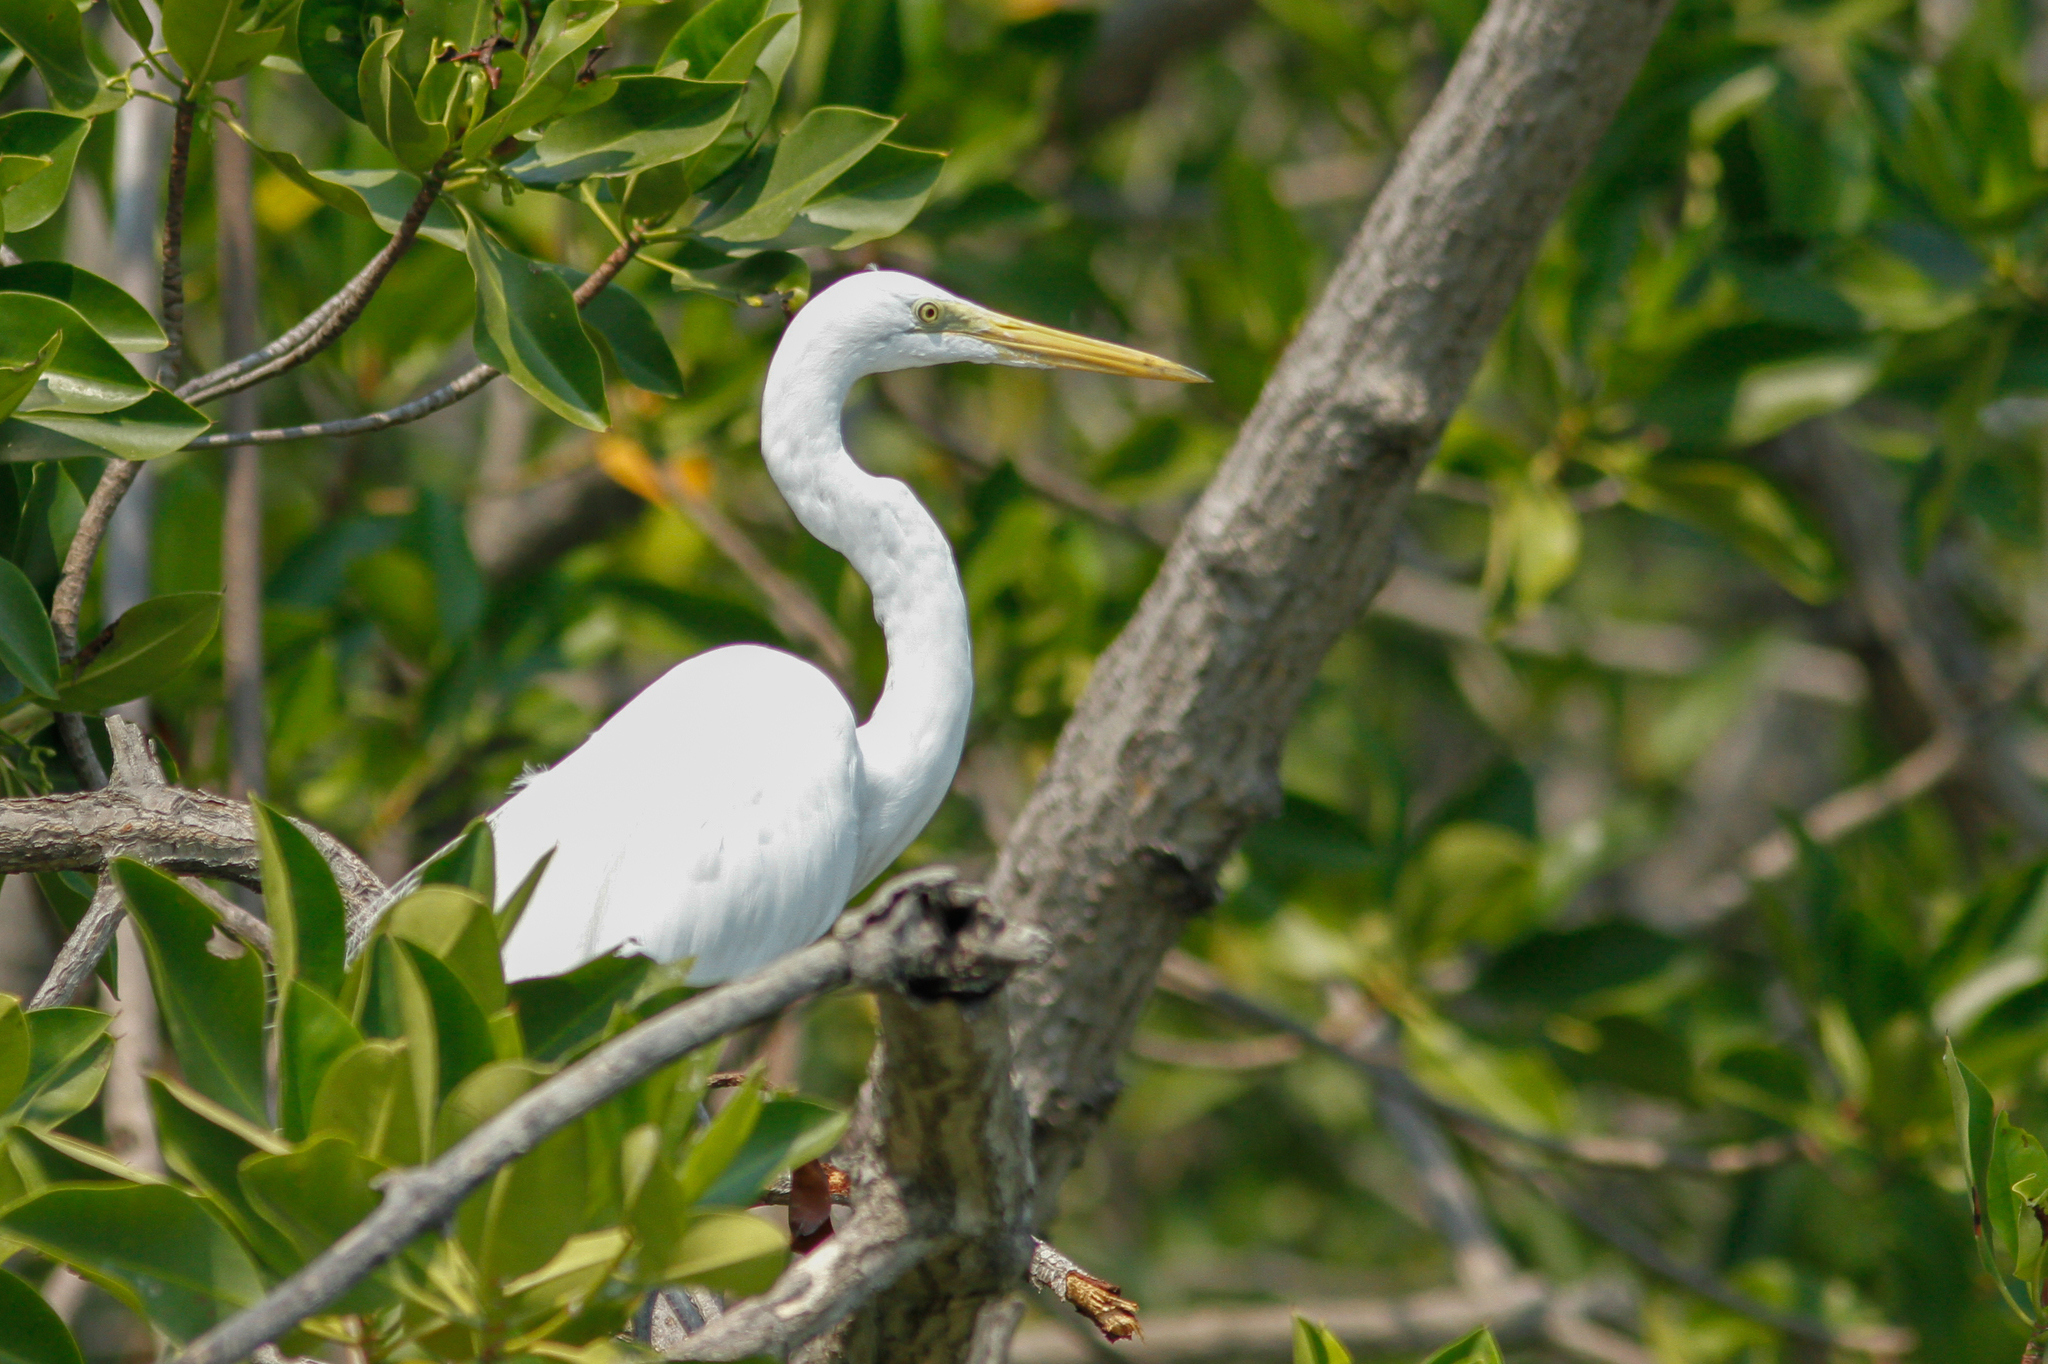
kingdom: Animalia
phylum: Chordata
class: Aves
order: Pelecaniformes
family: Ardeidae
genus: Ardea
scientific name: Ardea modesta
